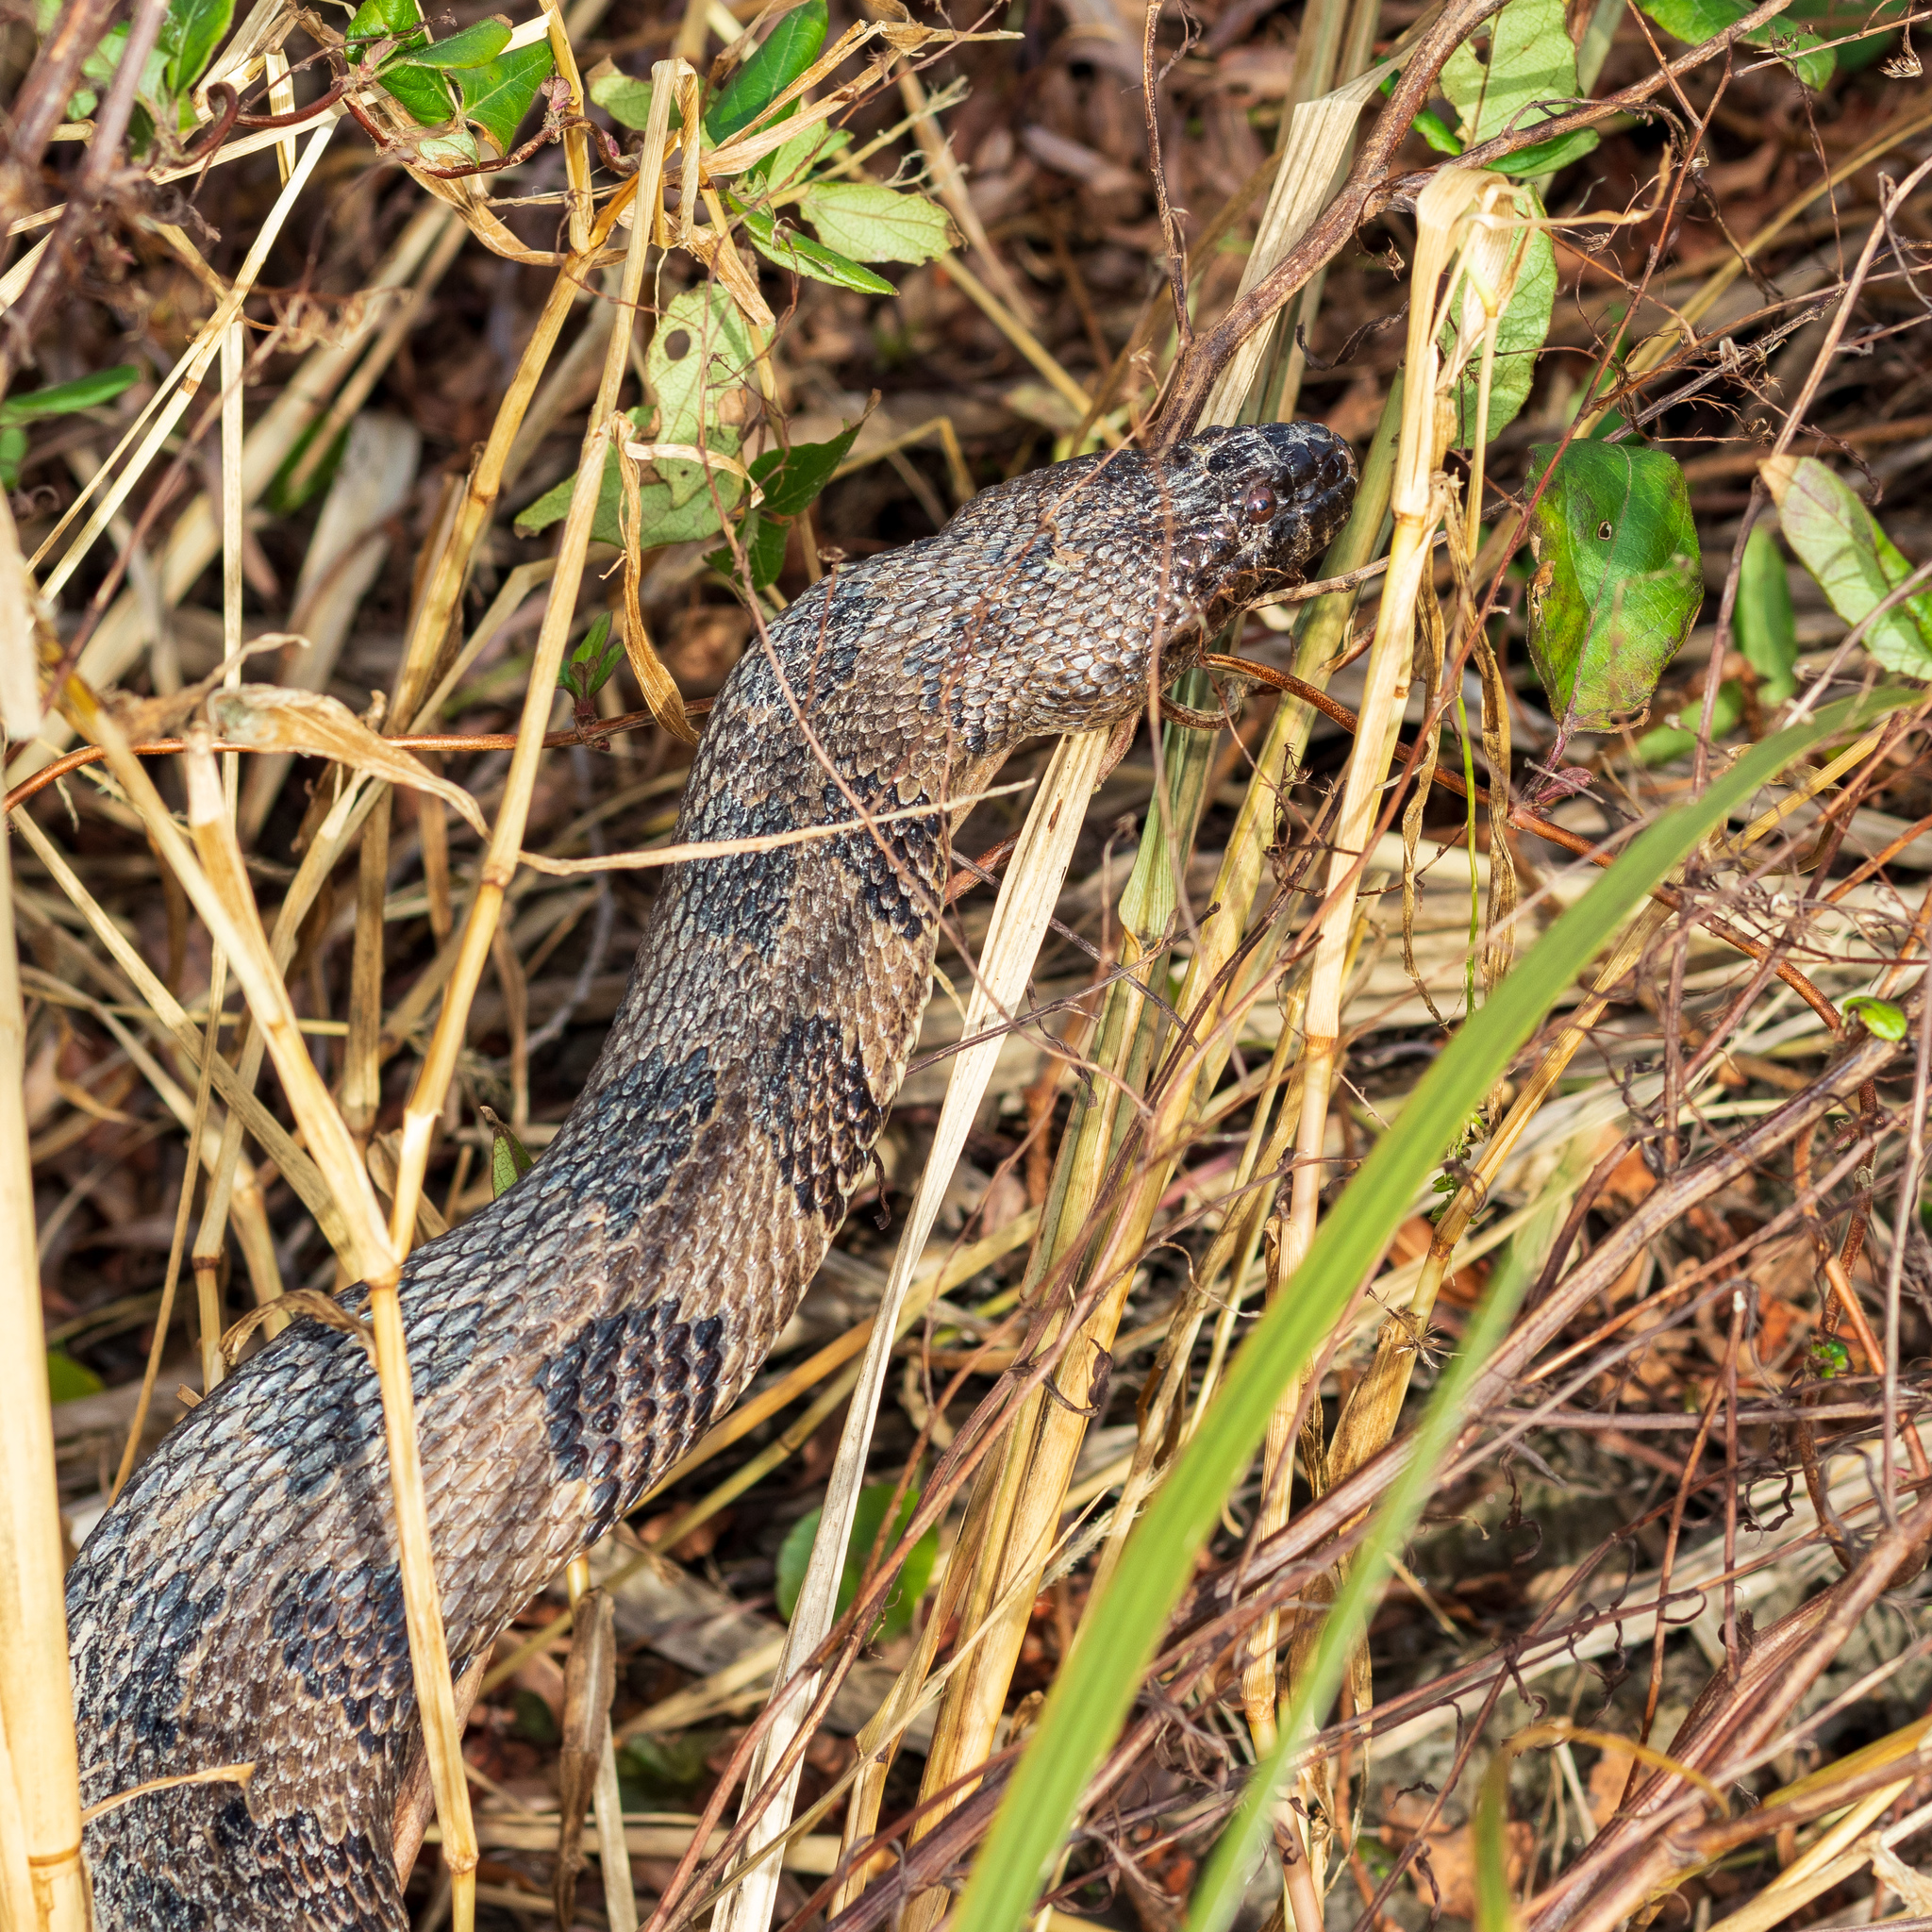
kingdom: Animalia
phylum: Chordata
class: Squamata
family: Colubridae
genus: Nerodia
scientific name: Nerodia taxispilota
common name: Brown water snake
